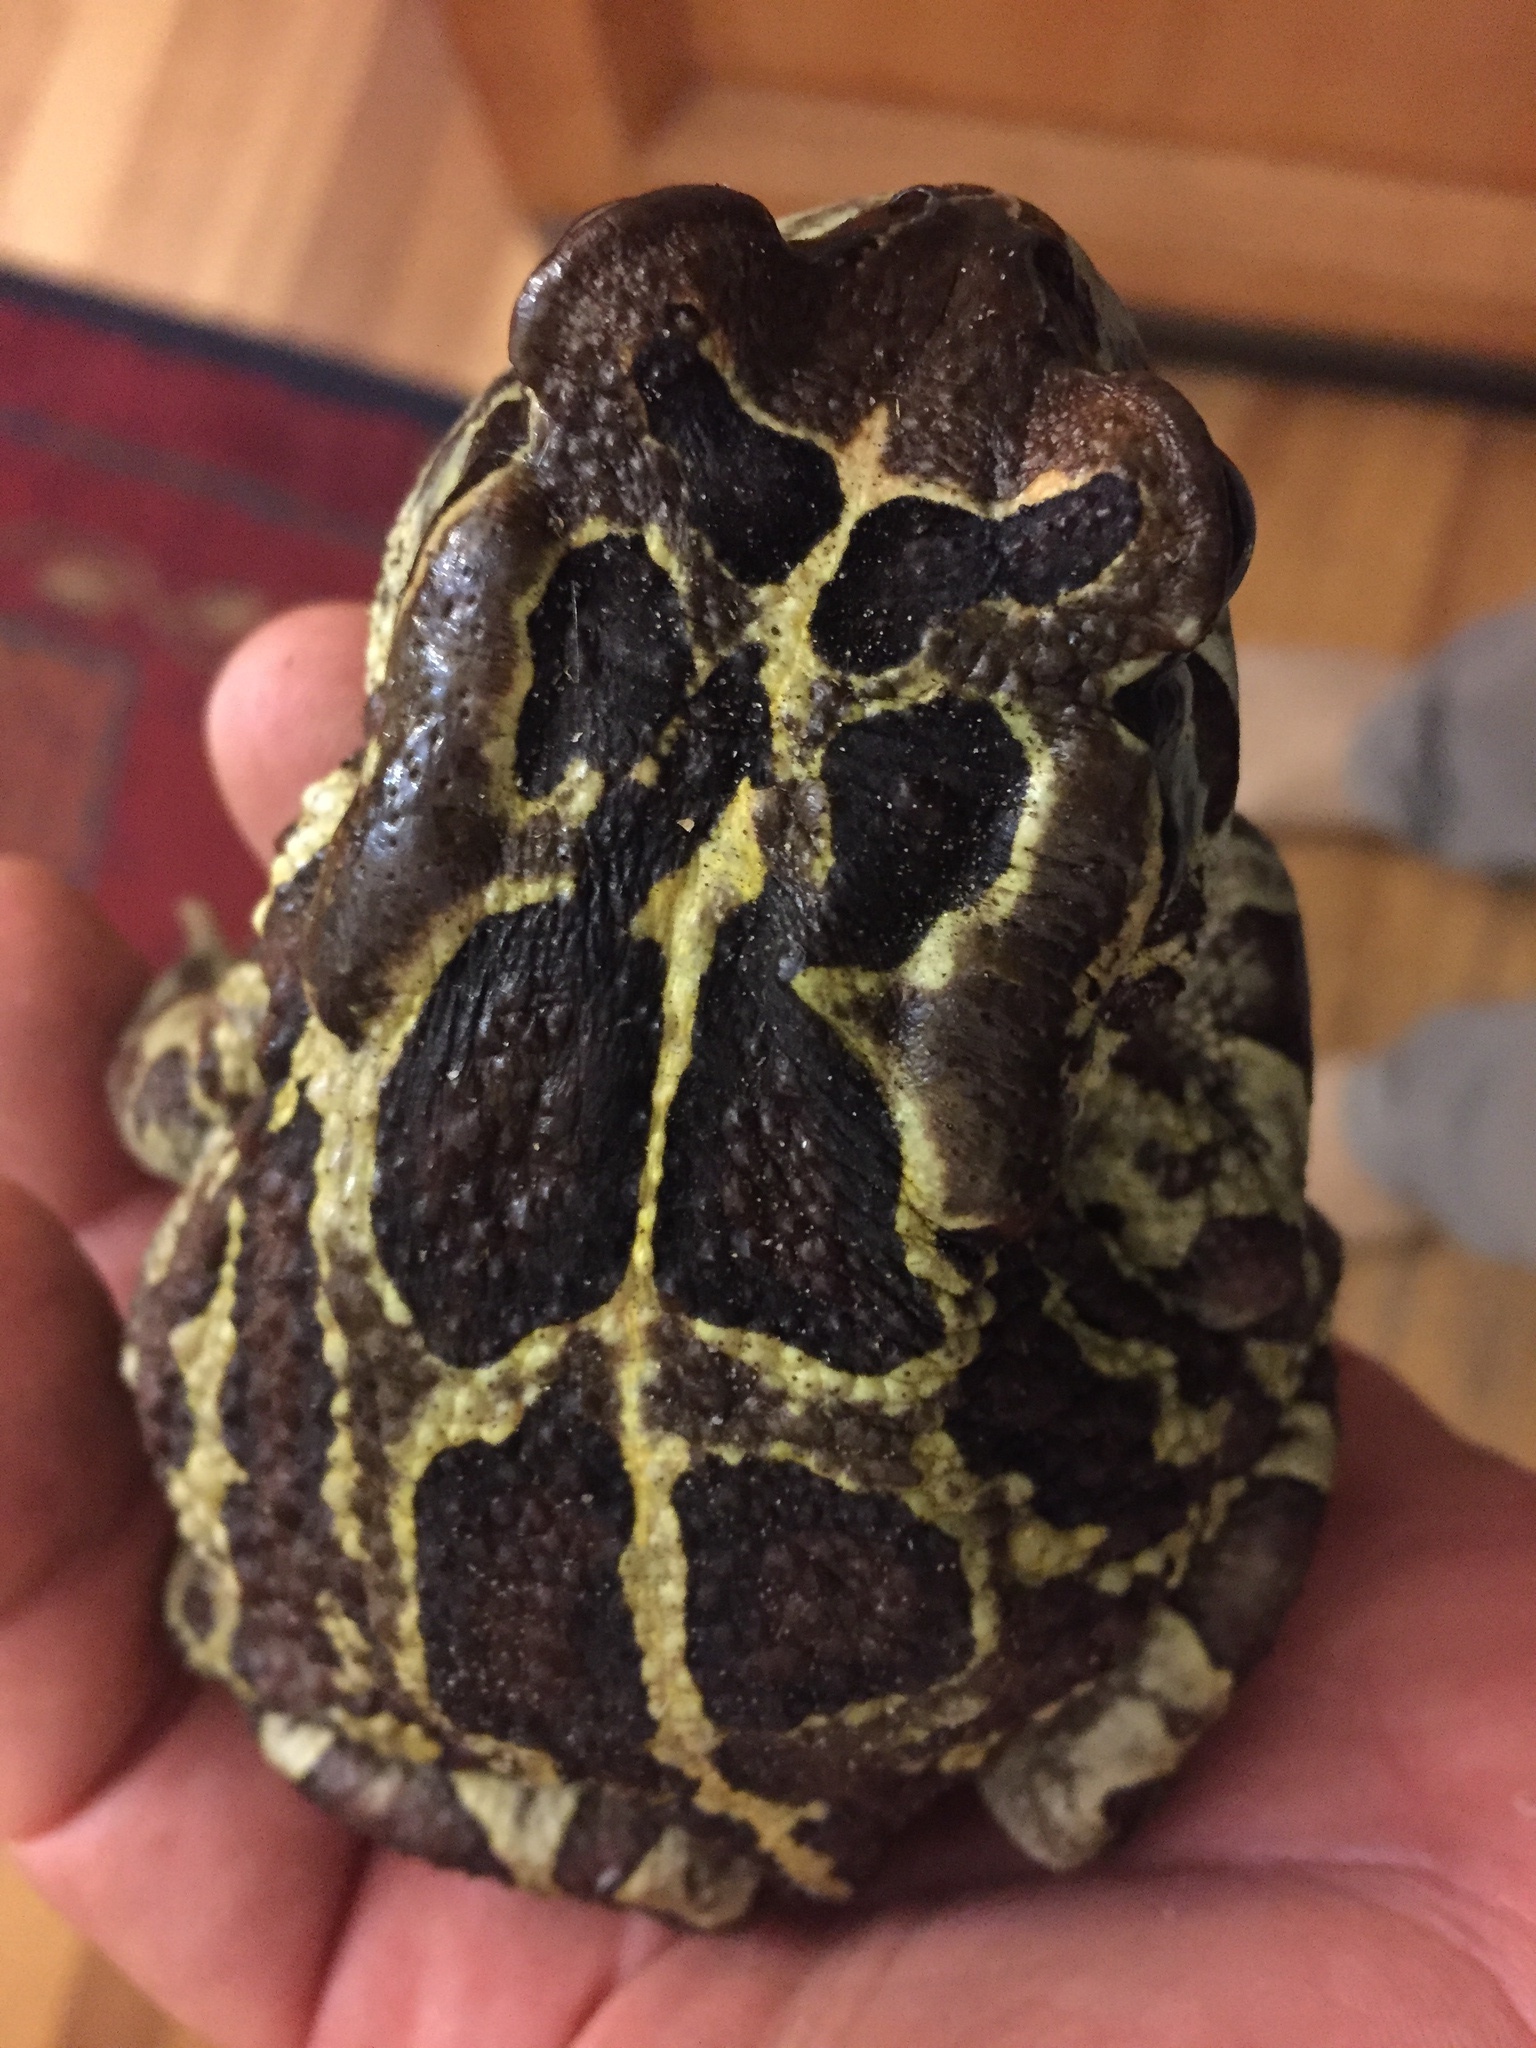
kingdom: Animalia
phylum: Chordata
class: Amphibia
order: Anura
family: Bufonidae
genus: Sclerophrys
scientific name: Sclerophrys pantherina
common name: Panther toad
